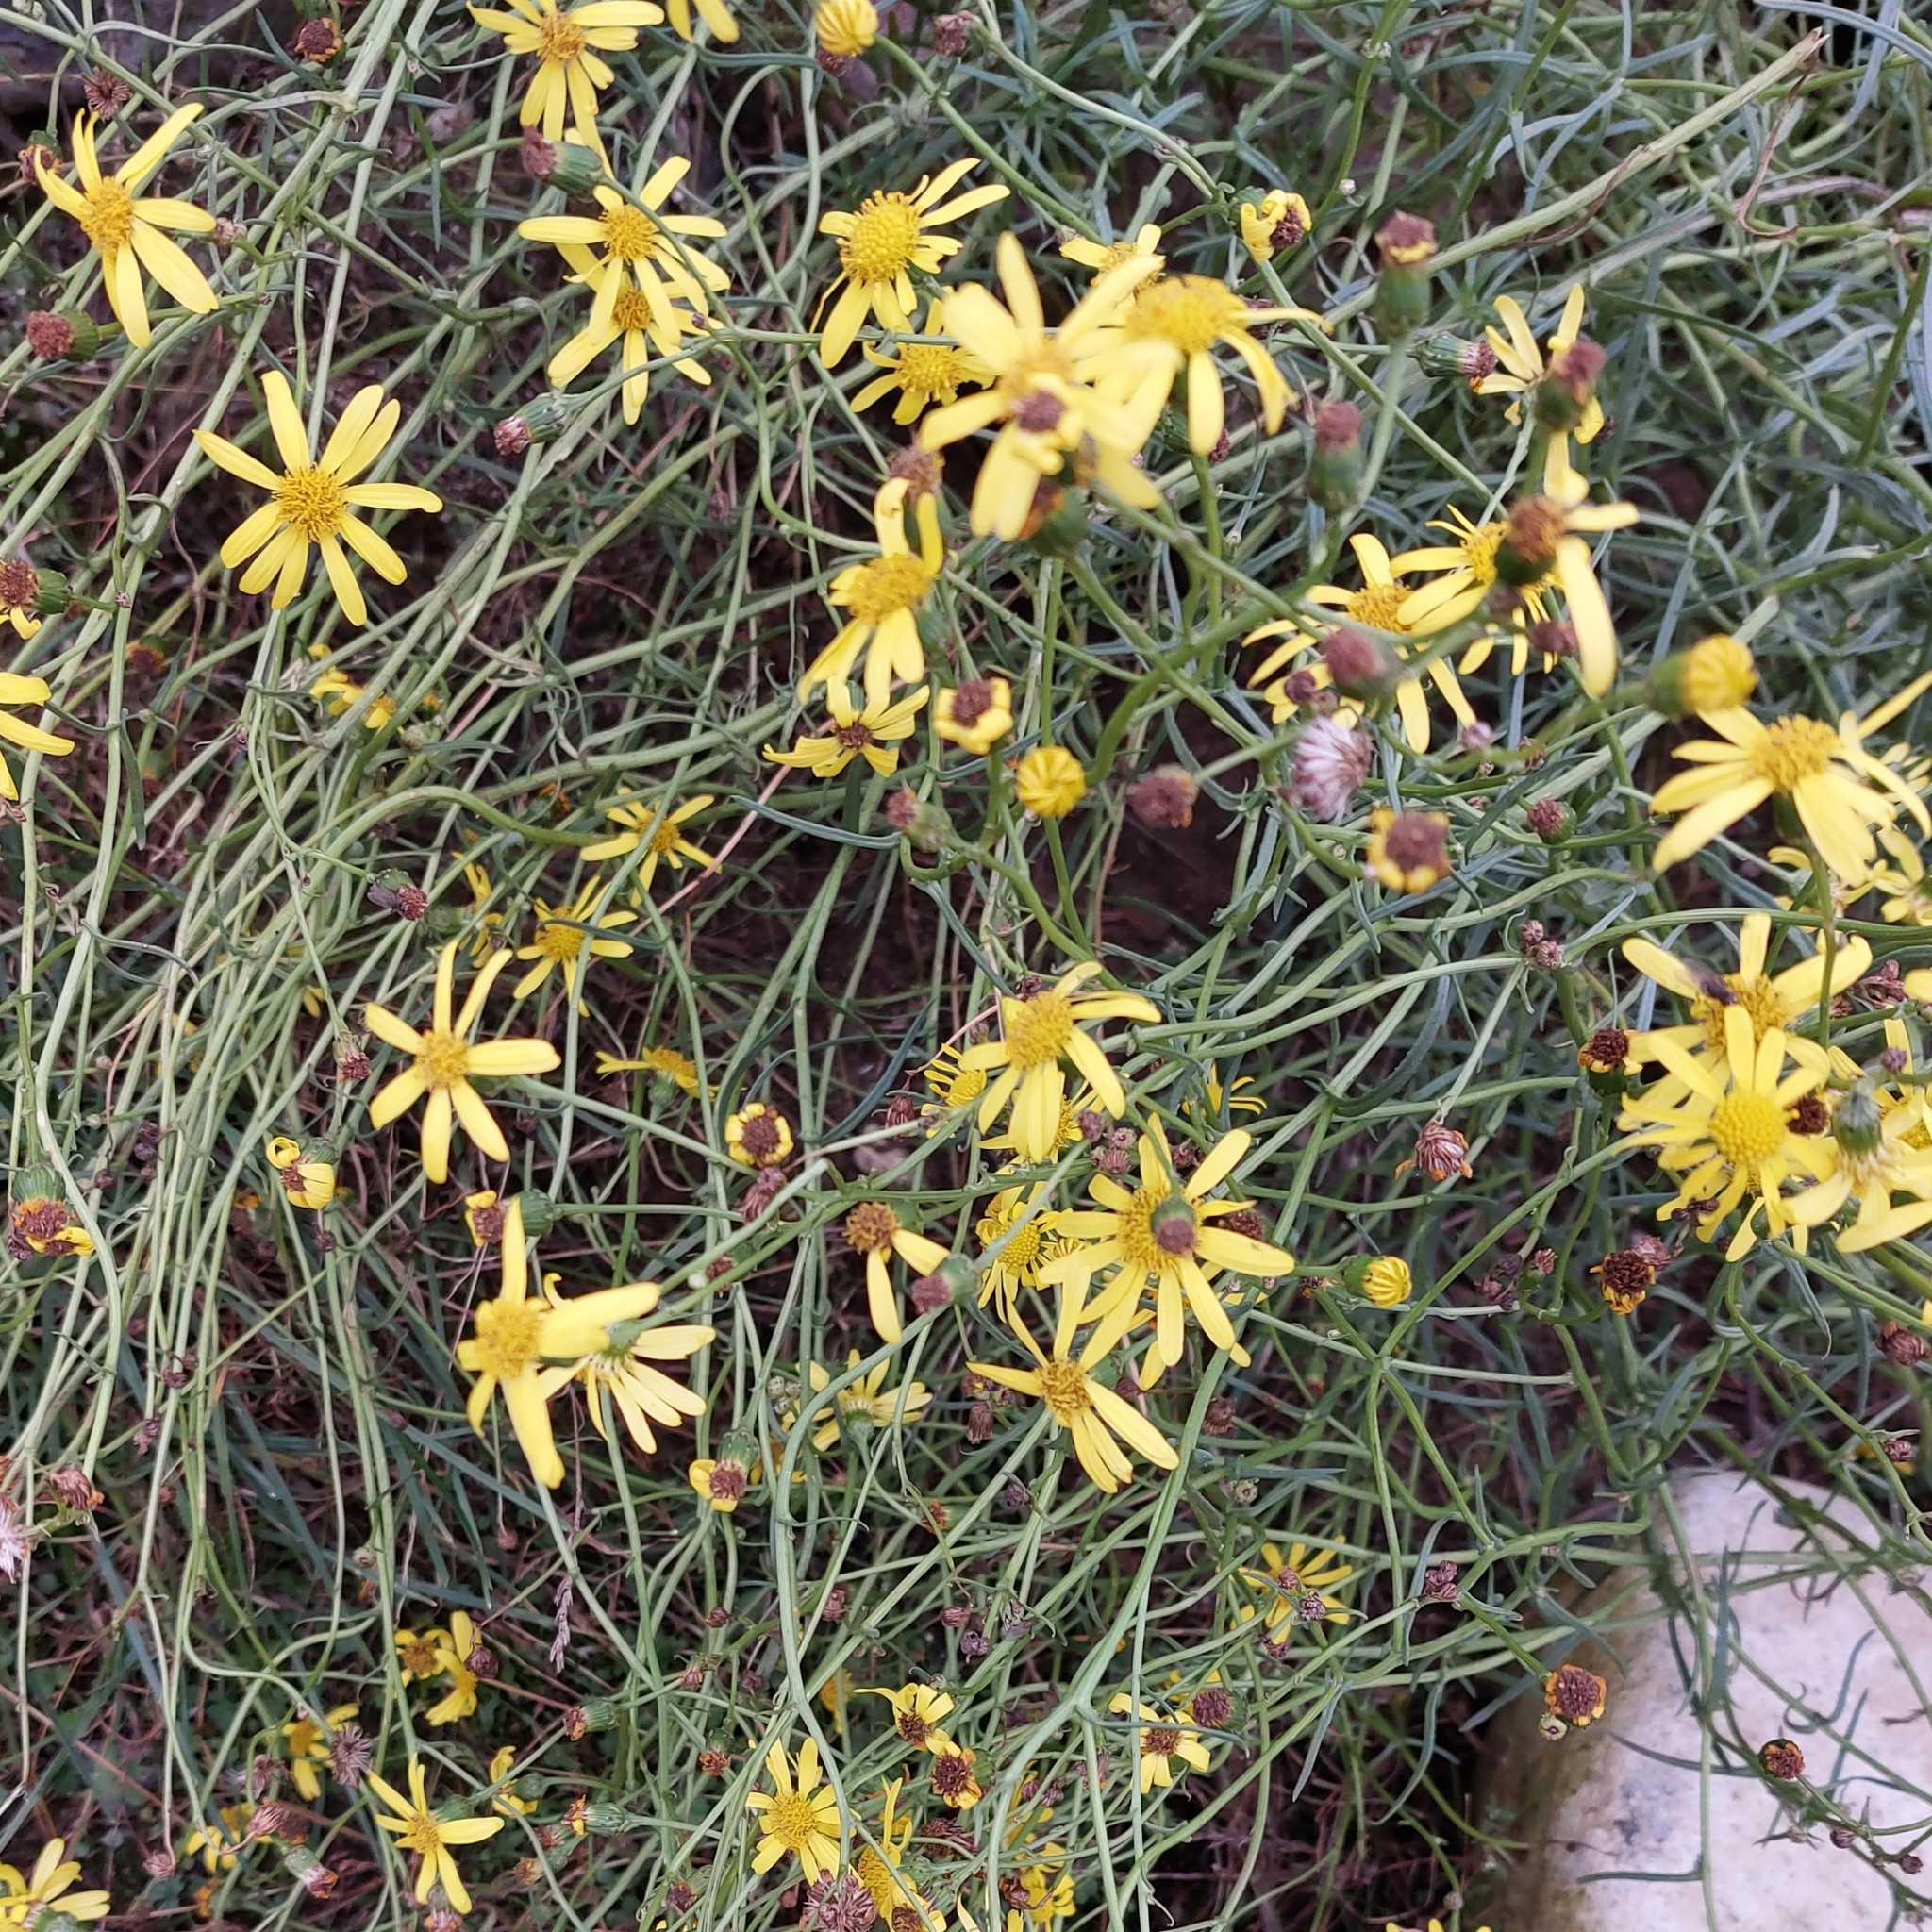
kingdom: Plantae
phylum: Tracheophyta
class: Magnoliopsida
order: Asterales
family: Asteraceae
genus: Senecio
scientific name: Senecio inaequidens
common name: Narrow-leaved ragwort
